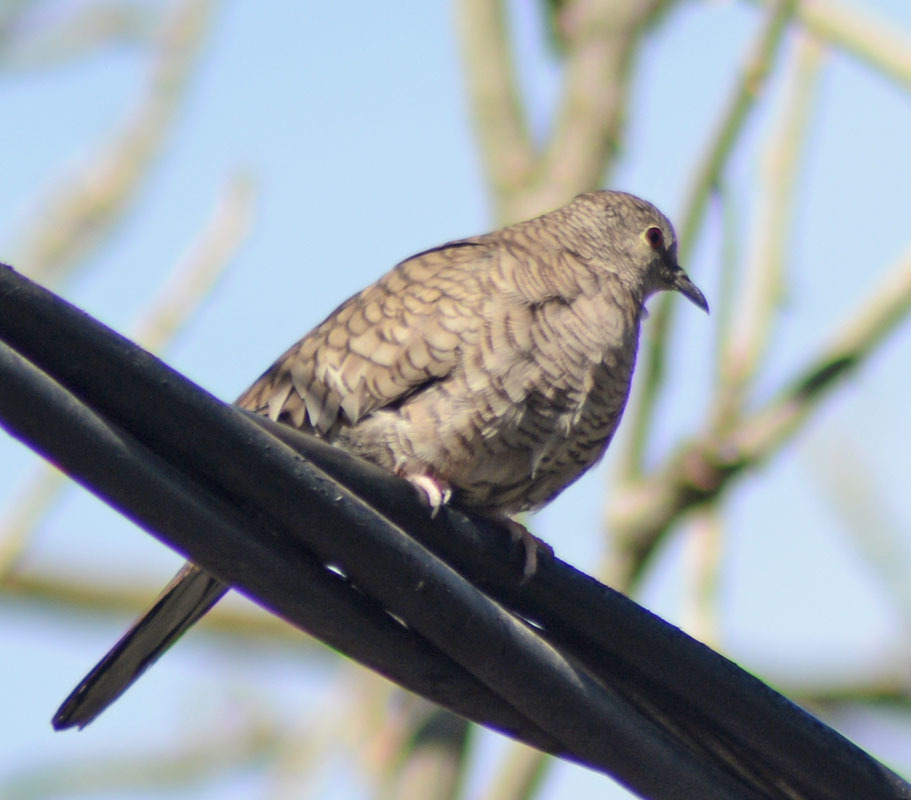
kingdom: Animalia
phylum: Chordata
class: Aves
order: Columbiformes
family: Columbidae
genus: Columbina
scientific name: Columbina inca
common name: Inca dove
